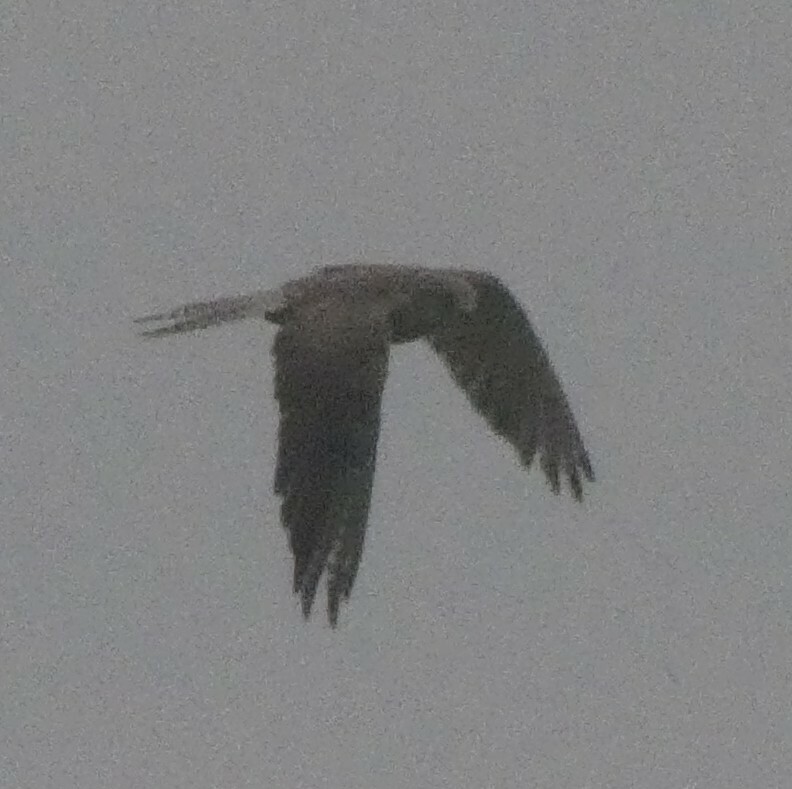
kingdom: Animalia
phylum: Chordata
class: Aves
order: Falconiformes
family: Falconidae
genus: Falco
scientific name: Falco tinnunculus
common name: Common kestrel
